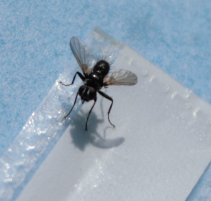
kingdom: Animalia
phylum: Arthropoda
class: Insecta
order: Diptera
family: Tachinidae
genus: Phania
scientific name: Phania funesta
